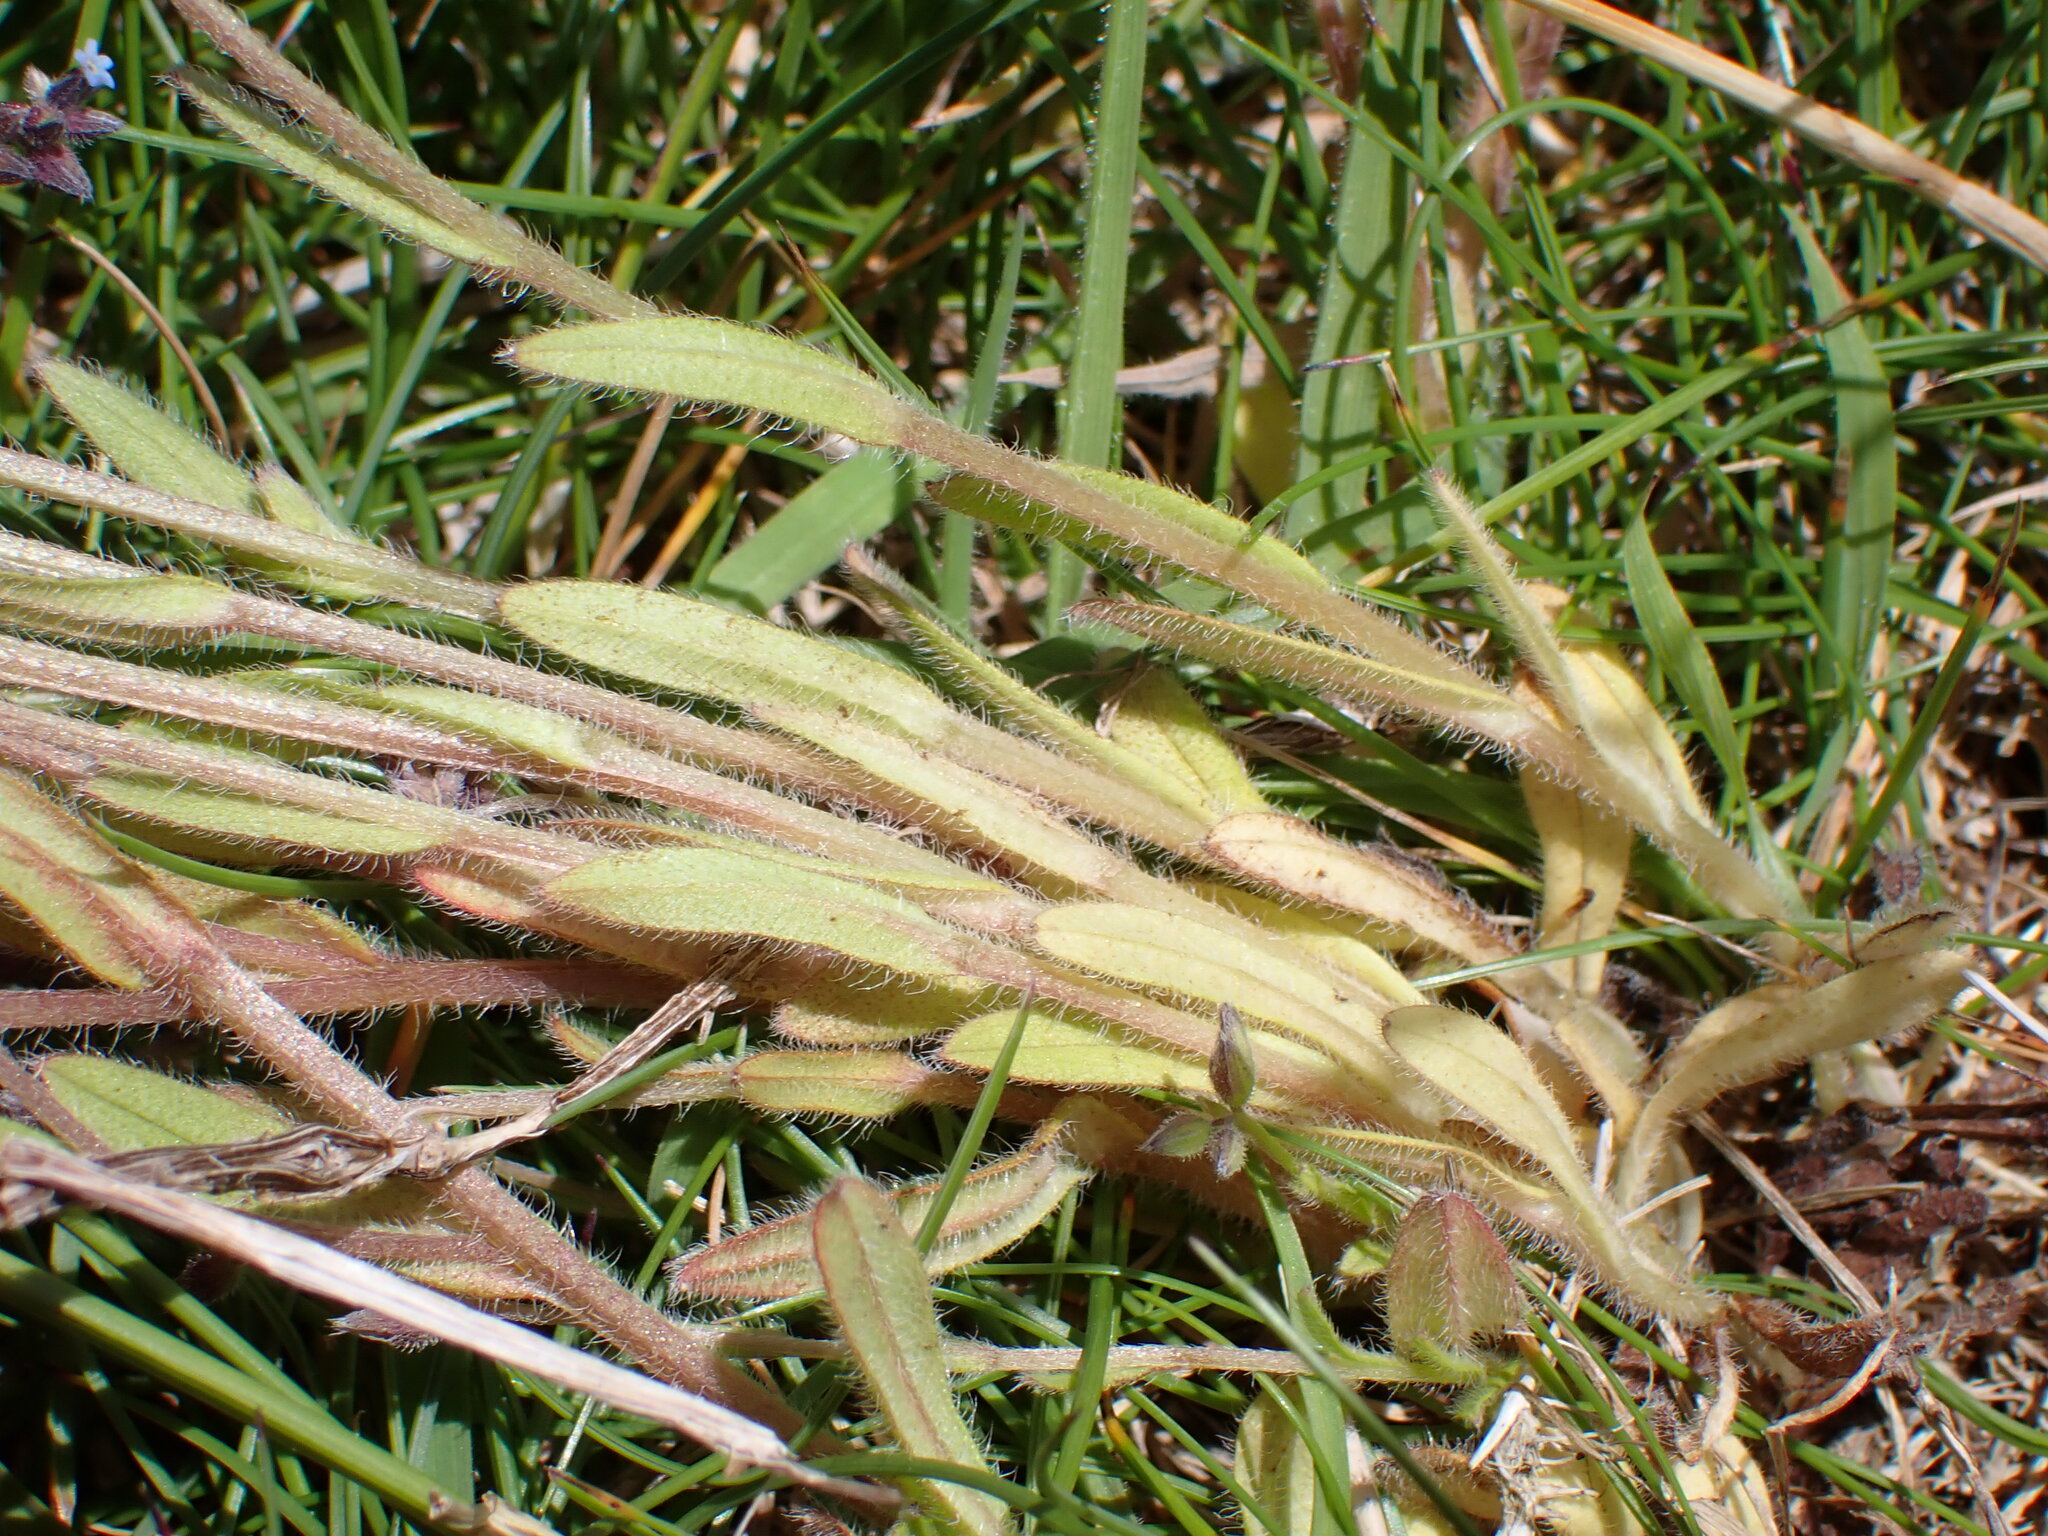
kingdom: Plantae
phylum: Tracheophyta
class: Magnoliopsida
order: Boraginales
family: Boraginaceae
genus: Myosotis
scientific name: Myosotis discolor
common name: Changing forget-me-not
